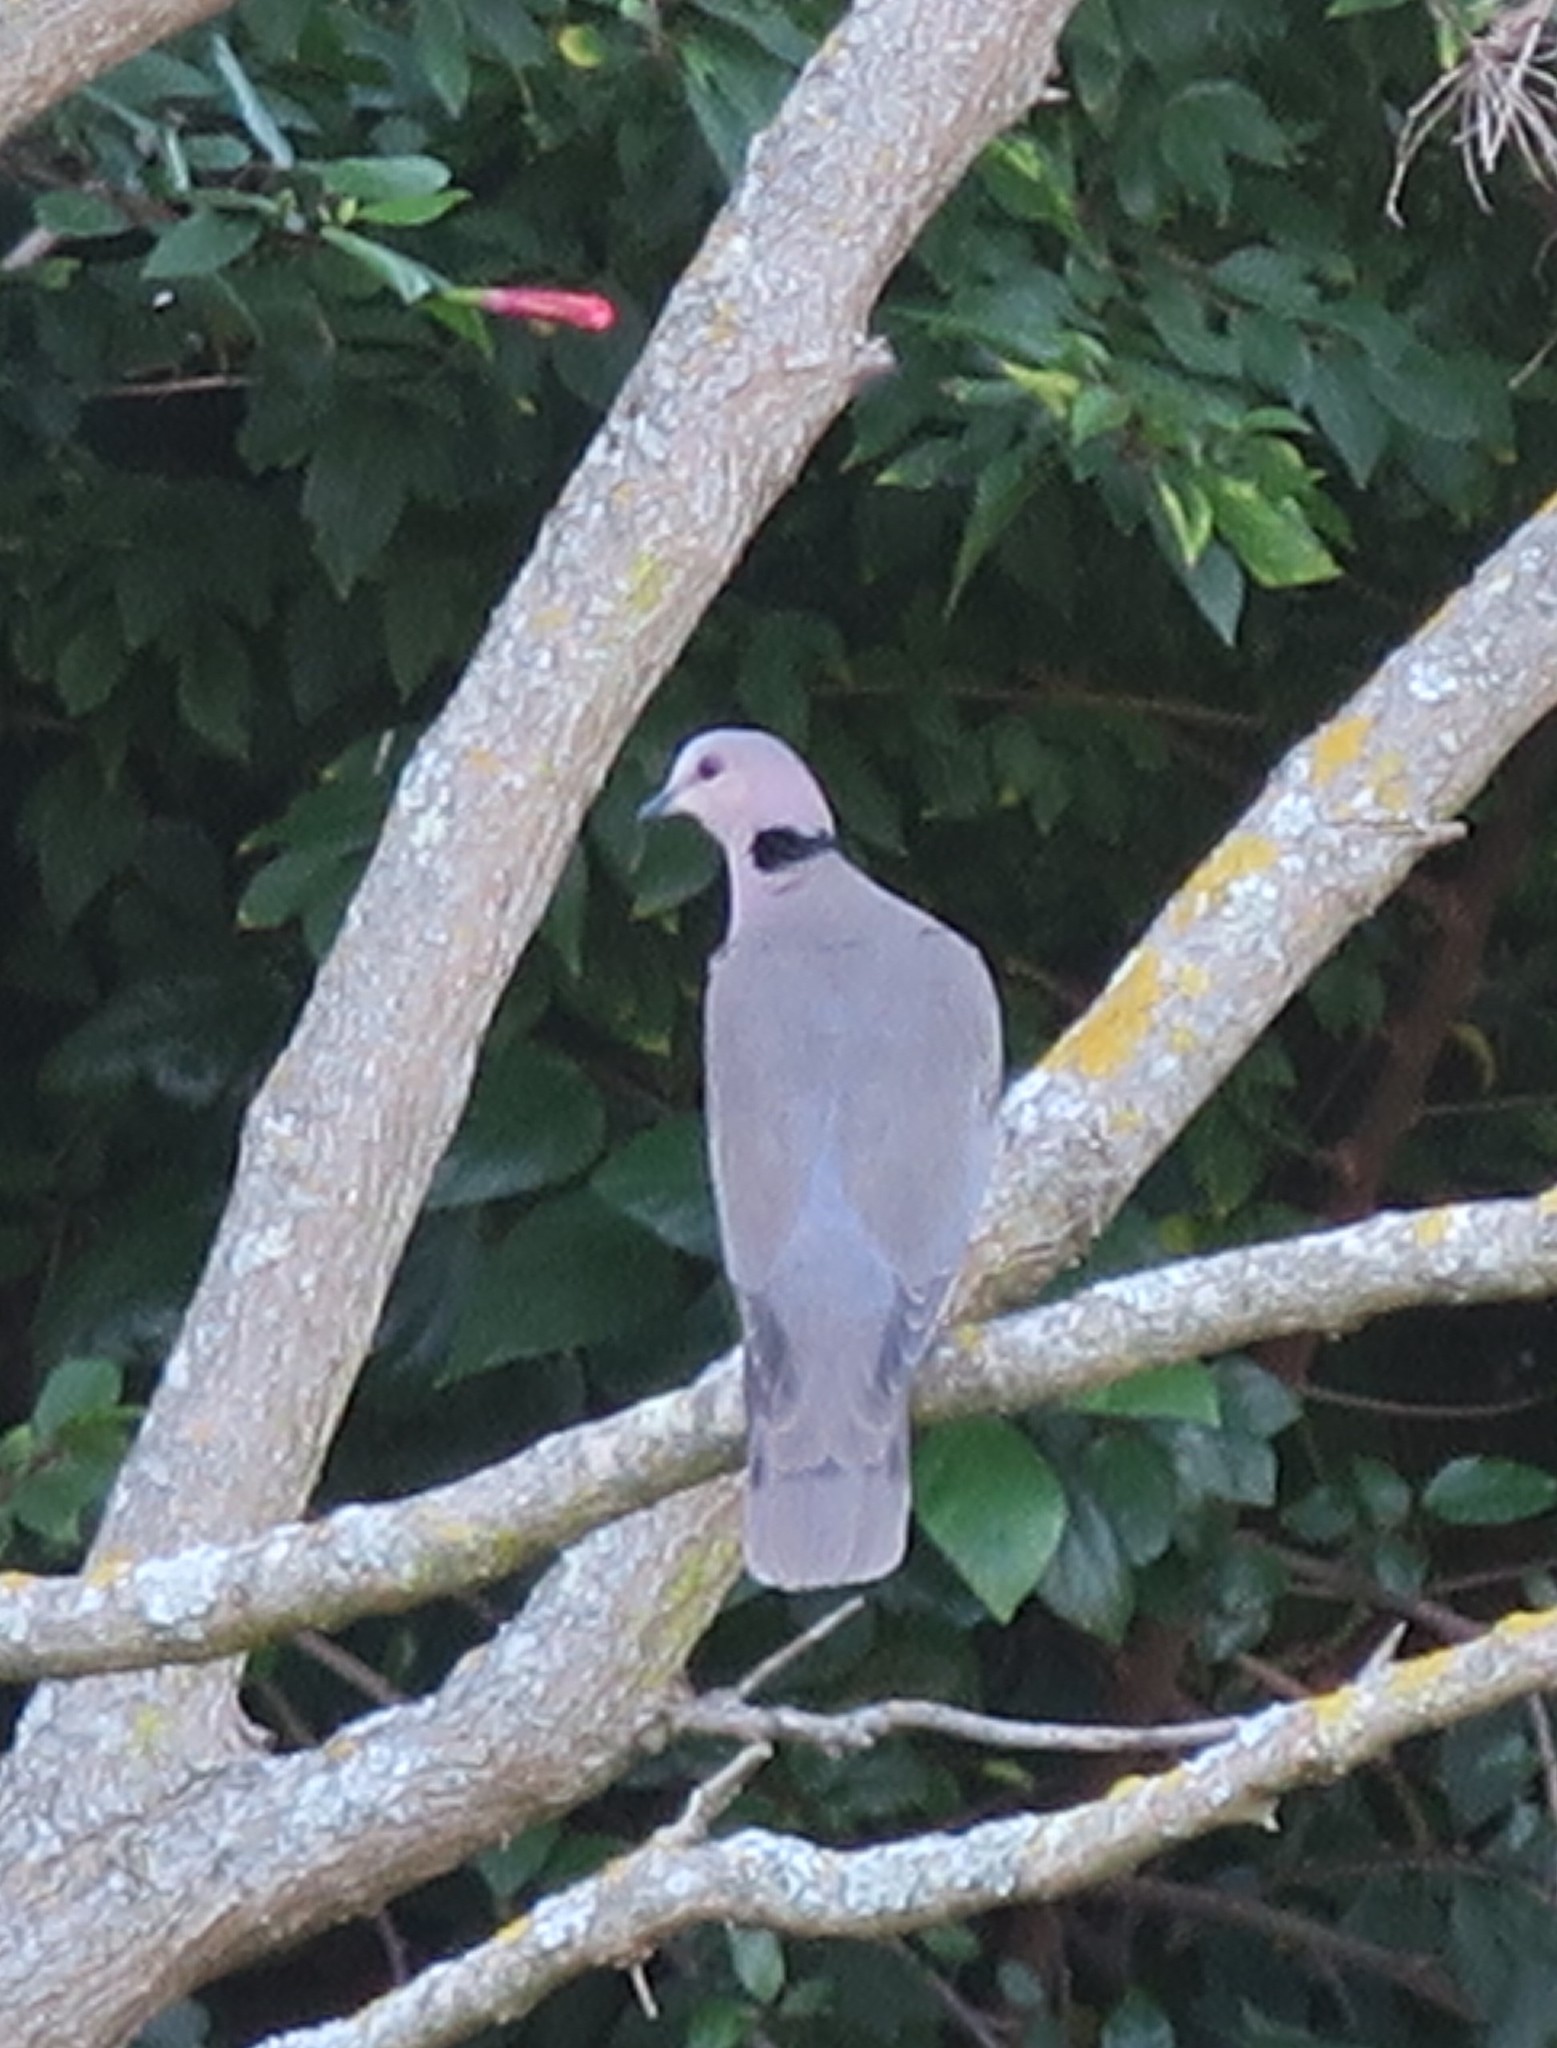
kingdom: Animalia
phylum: Chordata
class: Aves
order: Columbiformes
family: Columbidae
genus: Streptopelia
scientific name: Streptopelia semitorquata
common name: Red-eyed dove
